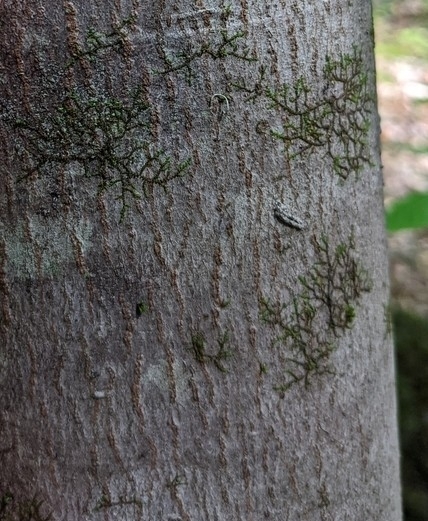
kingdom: Plantae
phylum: Marchantiophyta
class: Jungermanniopsida
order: Porellales
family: Frullaniaceae
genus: Frullania
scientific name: Frullania eboracensis
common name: New york scalewort
